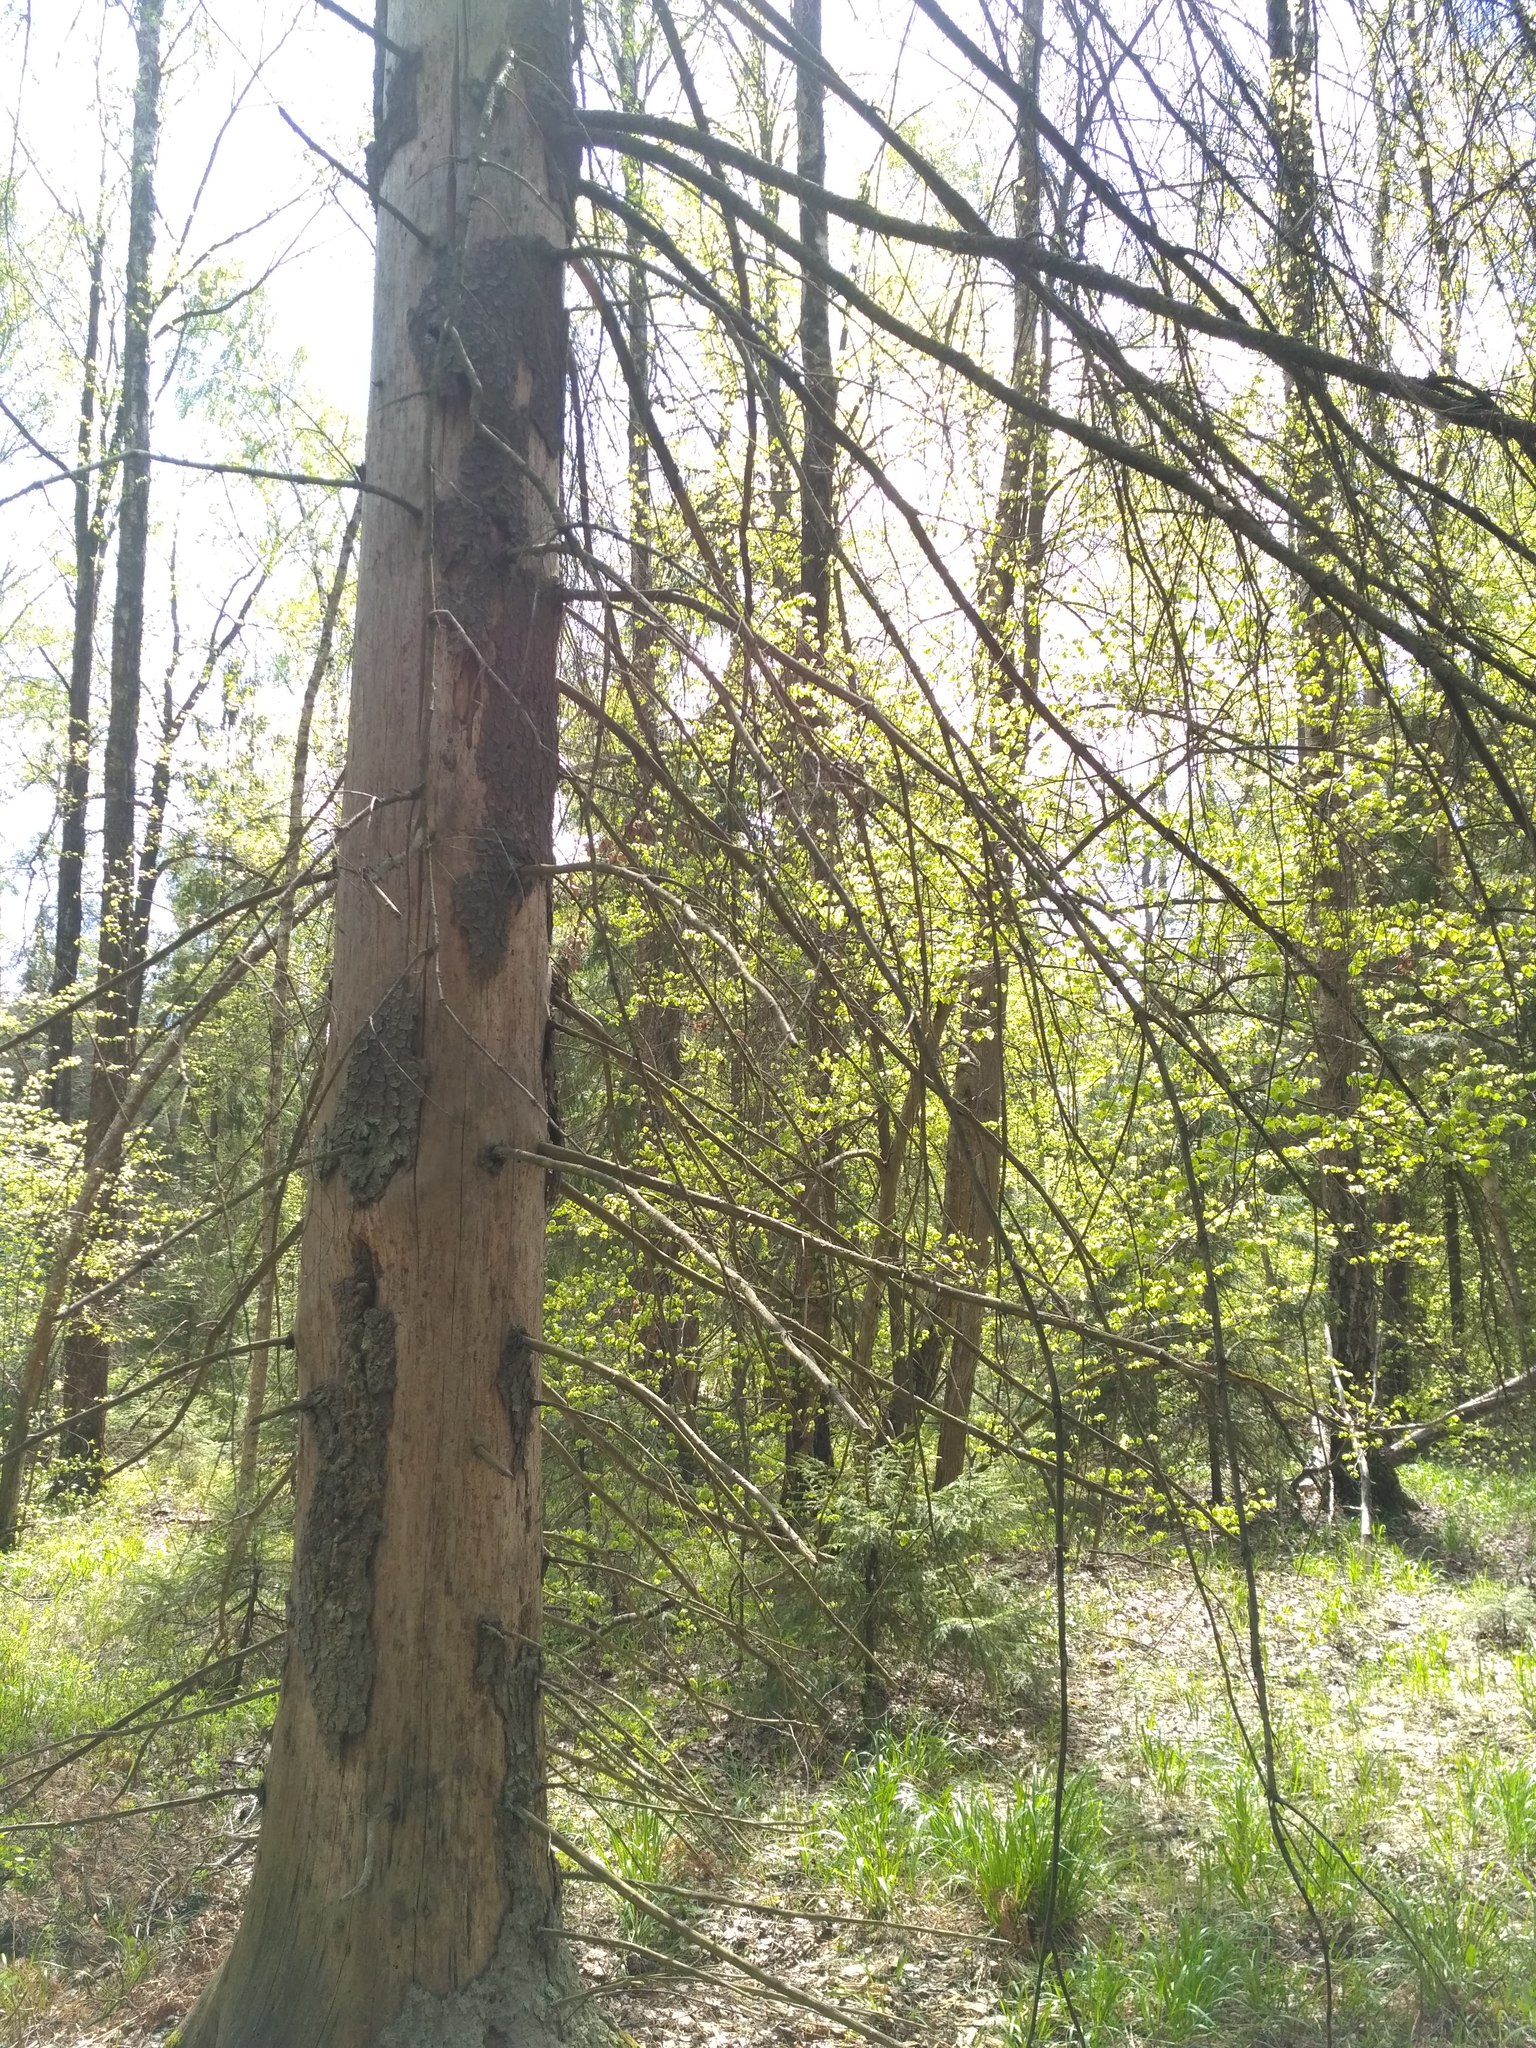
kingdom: Plantae
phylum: Tracheophyta
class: Pinopsida
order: Pinales
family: Pinaceae
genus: Picea
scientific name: Picea abies
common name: Norway spruce
